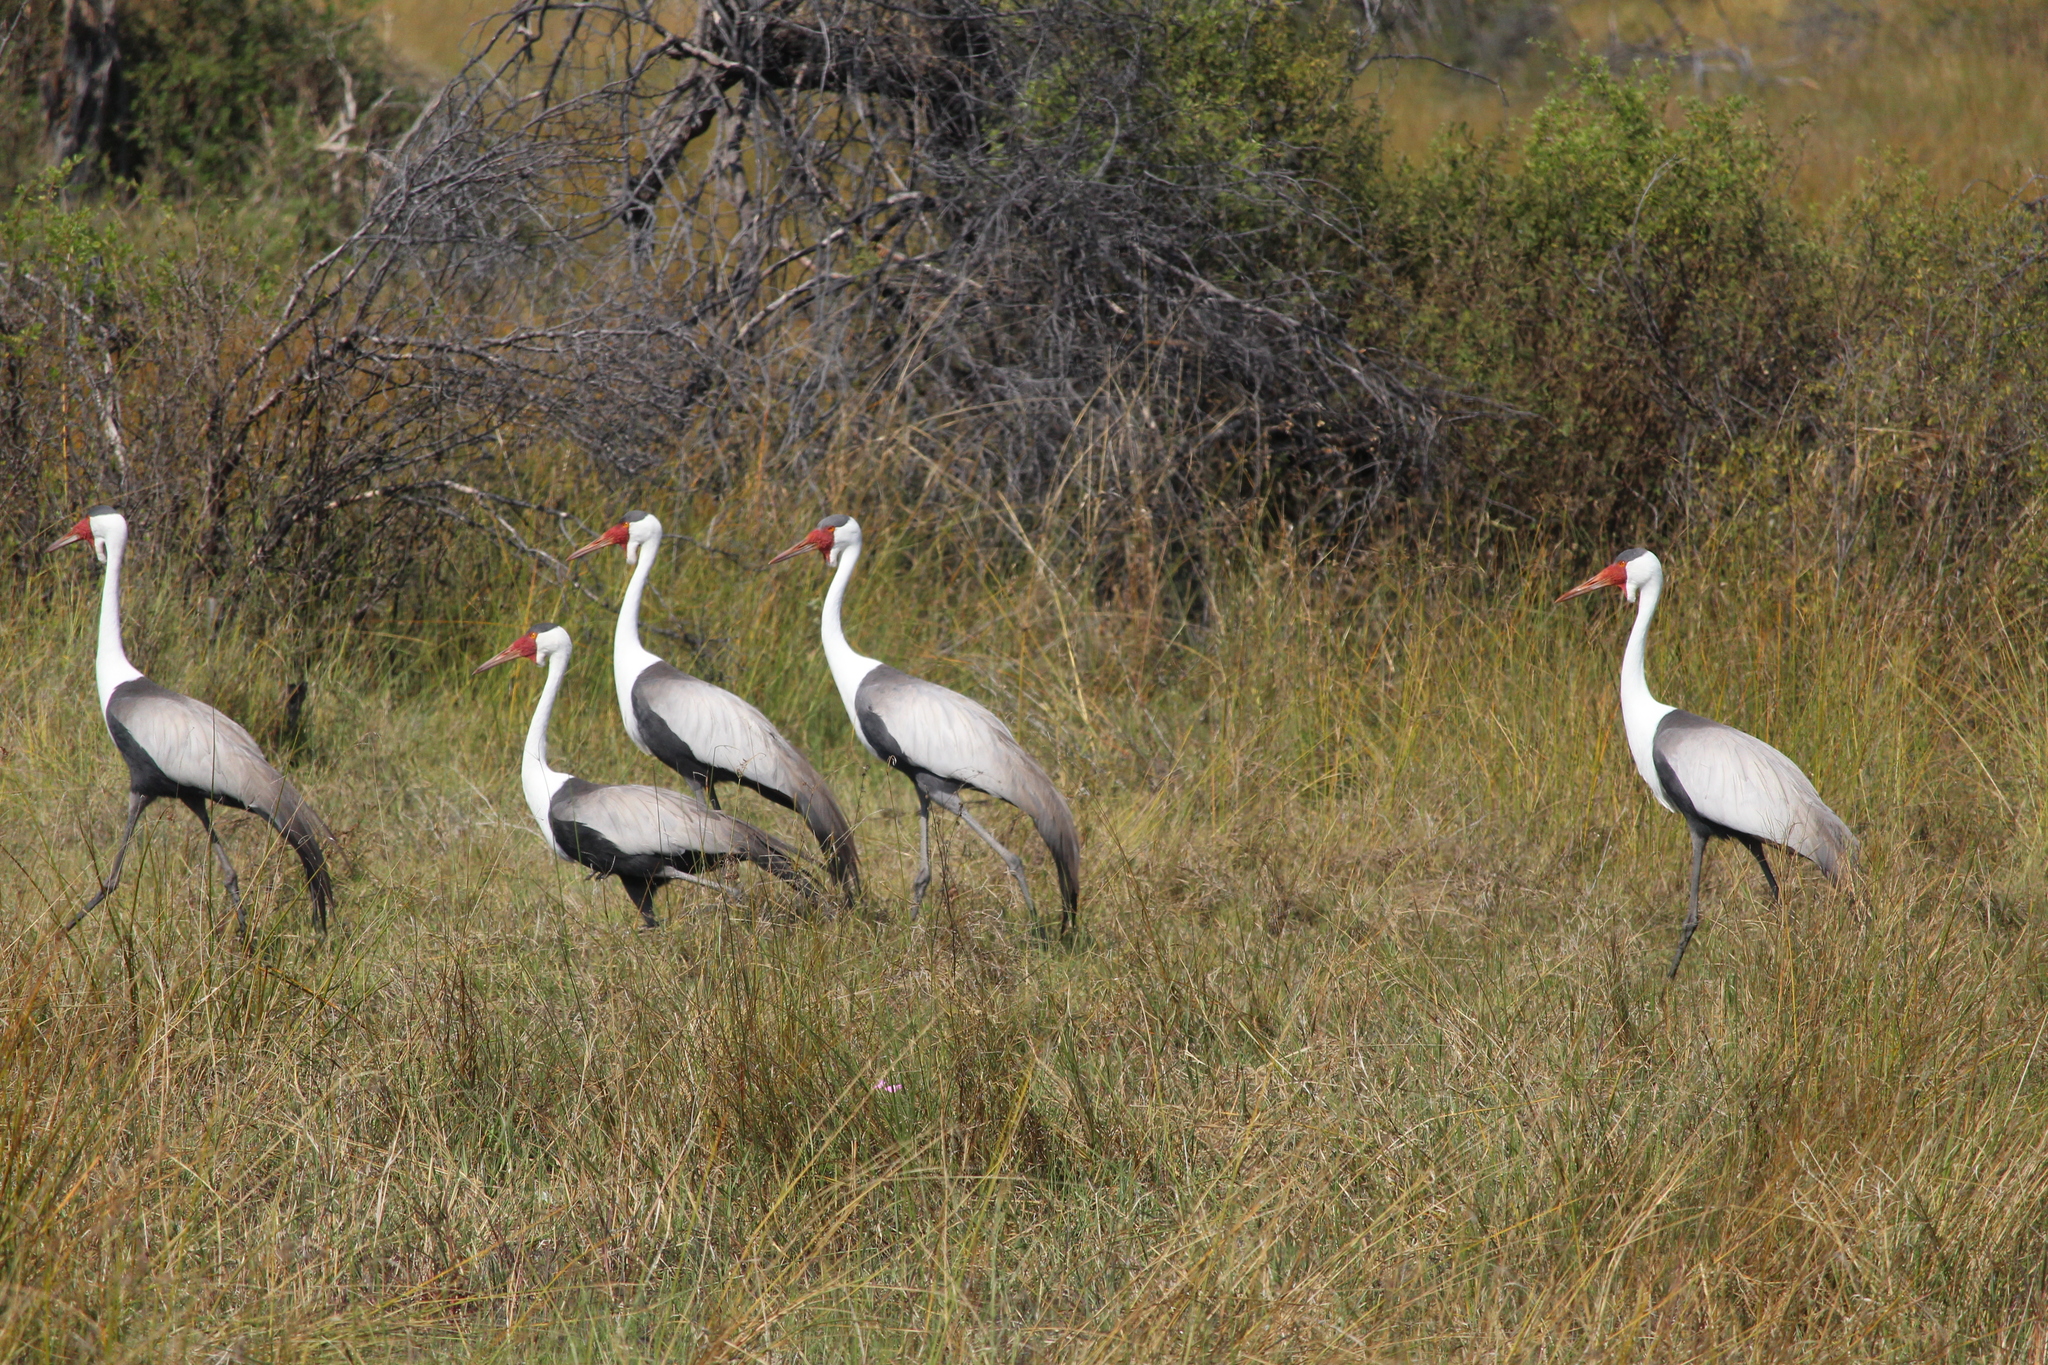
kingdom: Animalia
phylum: Chordata
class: Aves
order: Gruiformes
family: Gruidae
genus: Bugeranus
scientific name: Bugeranus carunculatus
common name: Wattled crane
